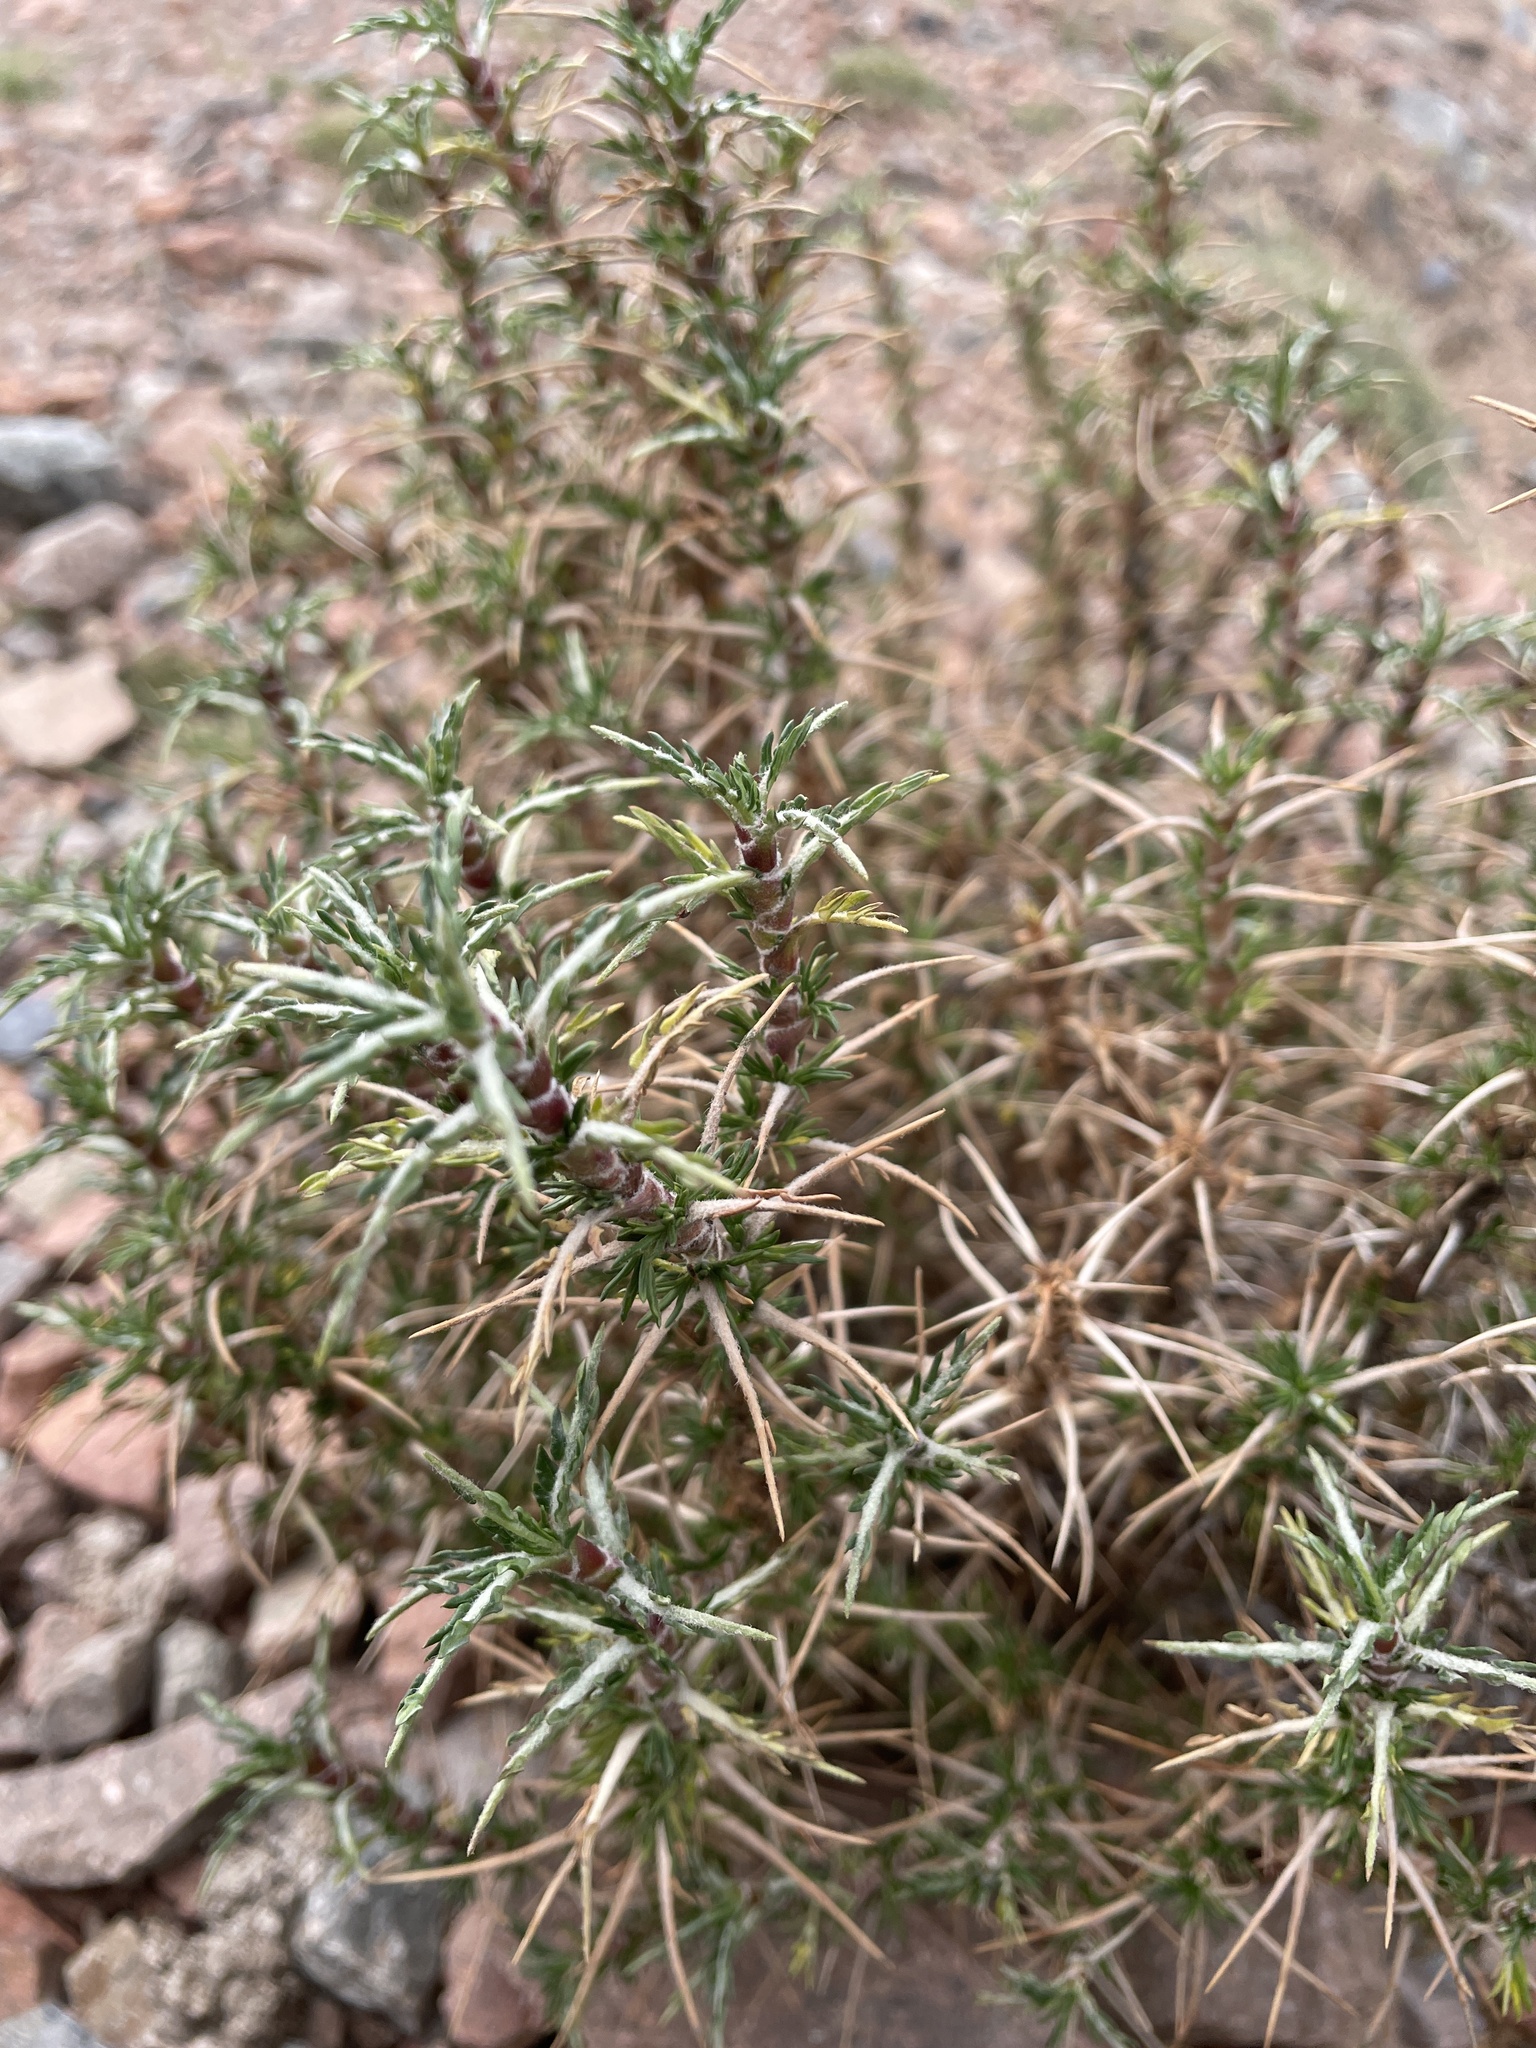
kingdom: Plantae
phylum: Tracheophyta
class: Magnoliopsida
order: Rosales
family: Rosaceae
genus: Margyricarpus
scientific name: Margyricarpus alatus
